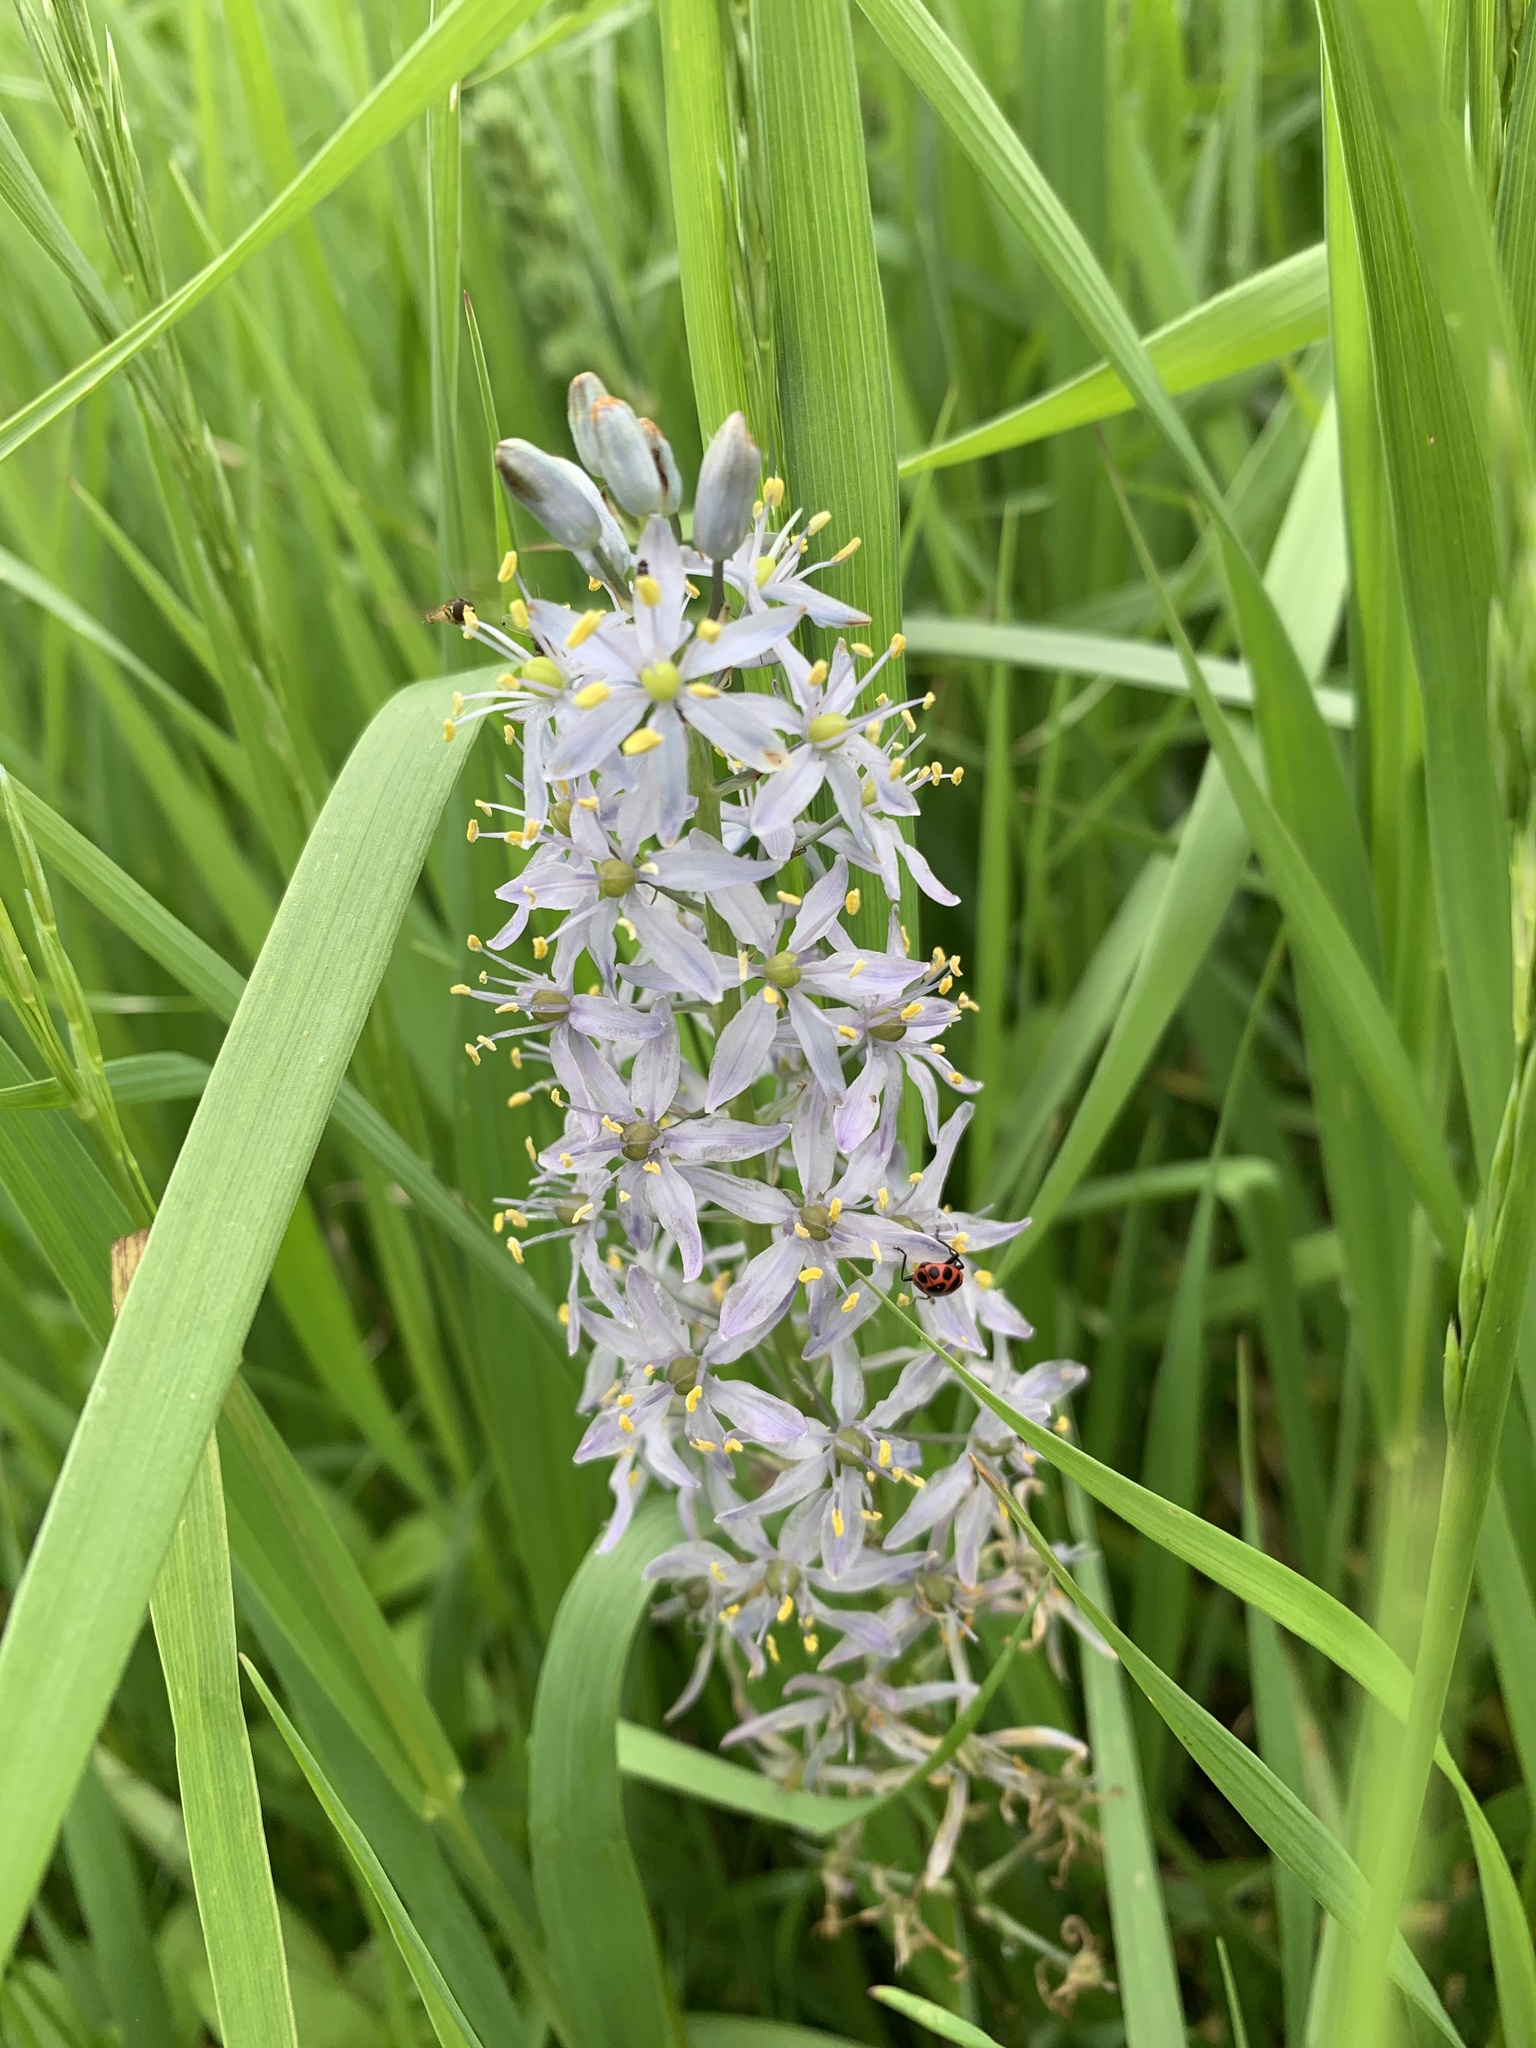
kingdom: Plantae
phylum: Tracheophyta
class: Liliopsida
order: Asparagales
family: Asparagaceae
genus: Camassia
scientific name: Camassia scilloides
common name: Wild hyacinth
